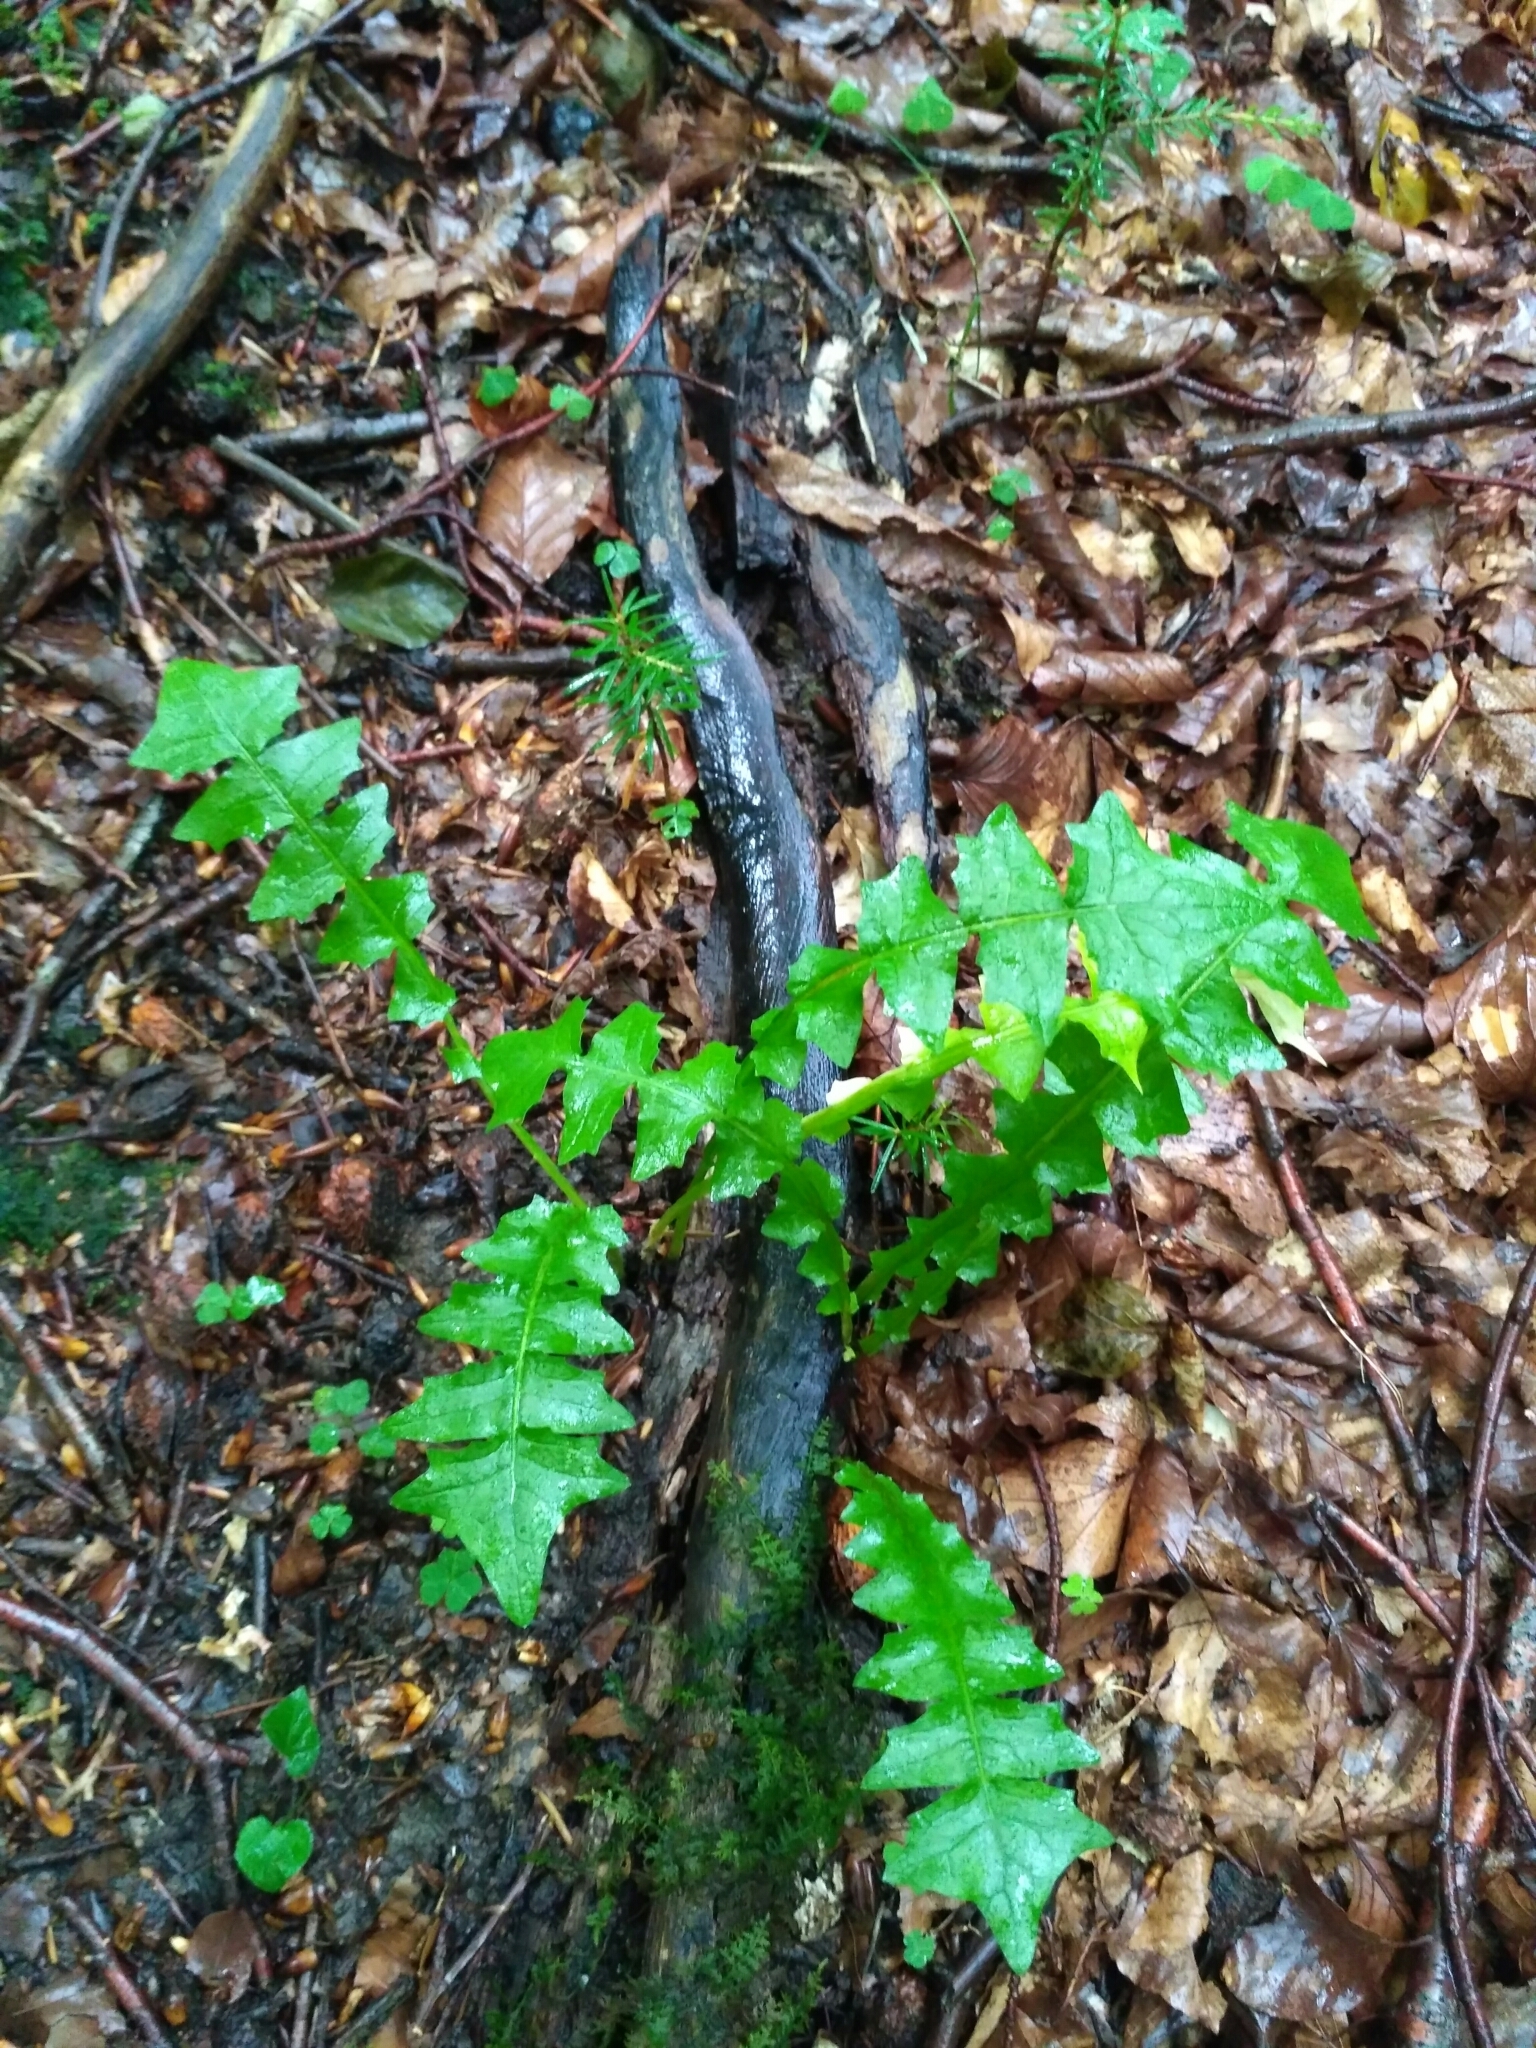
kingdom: Plantae
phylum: Tracheophyta
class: Magnoliopsida
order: Asterales
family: Asteraceae
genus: Aposeris
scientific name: Aposeris foetida
